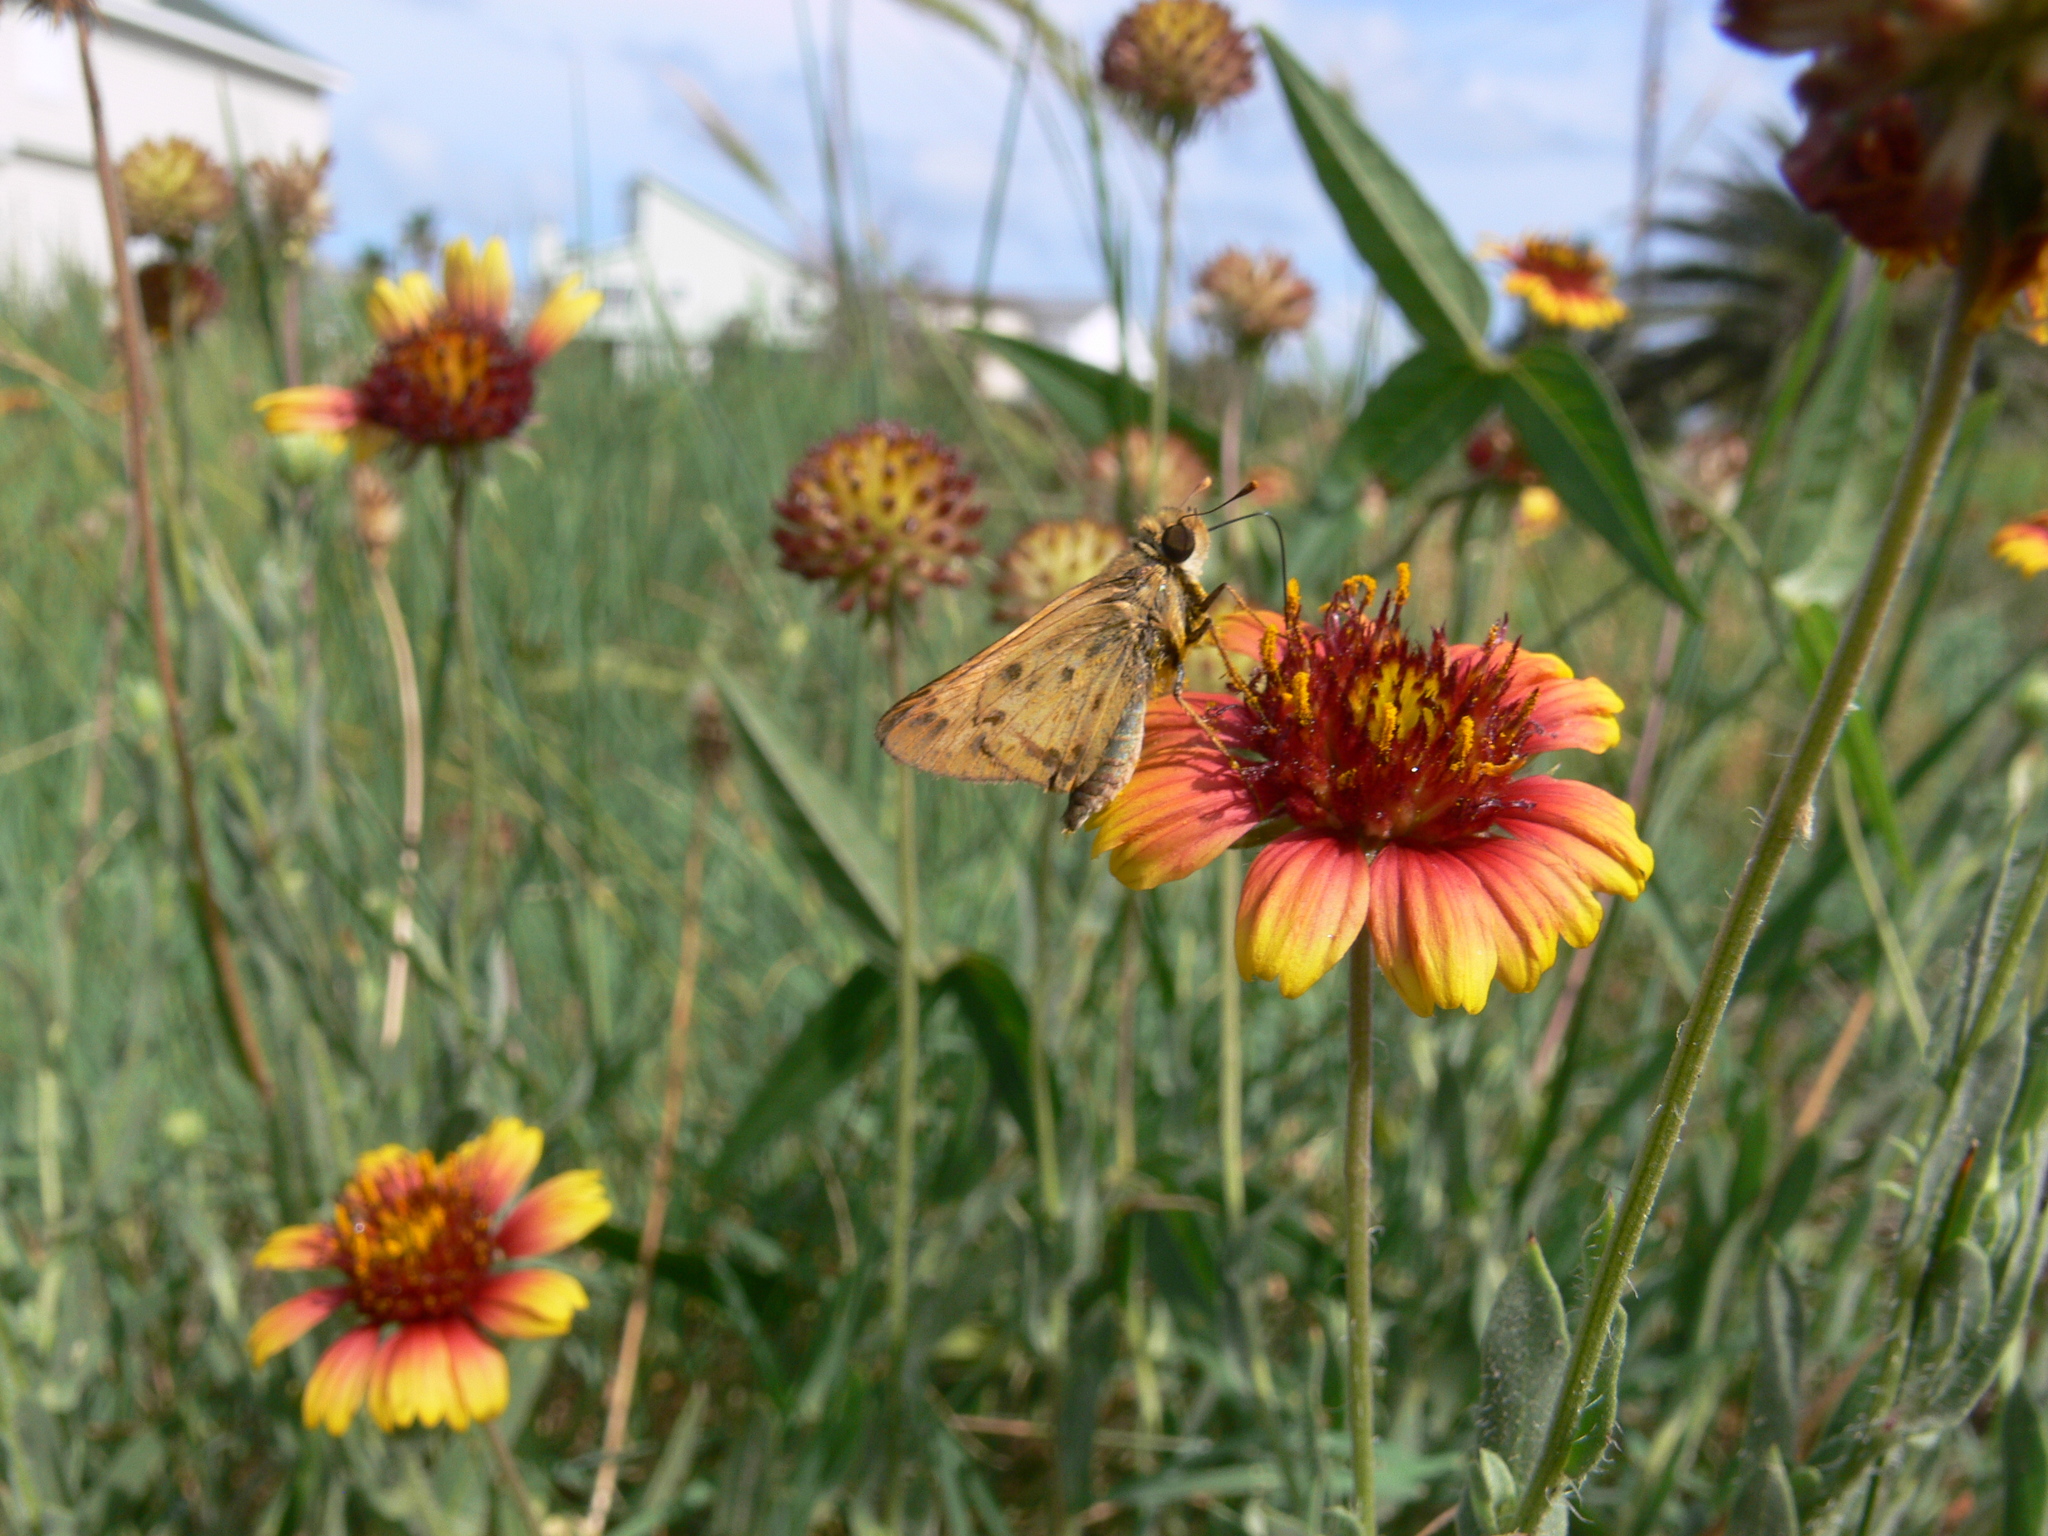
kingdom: Animalia
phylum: Arthropoda
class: Insecta
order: Lepidoptera
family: Hesperiidae
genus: Hylephila
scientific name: Hylephila phyleus
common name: Fiery skipper
